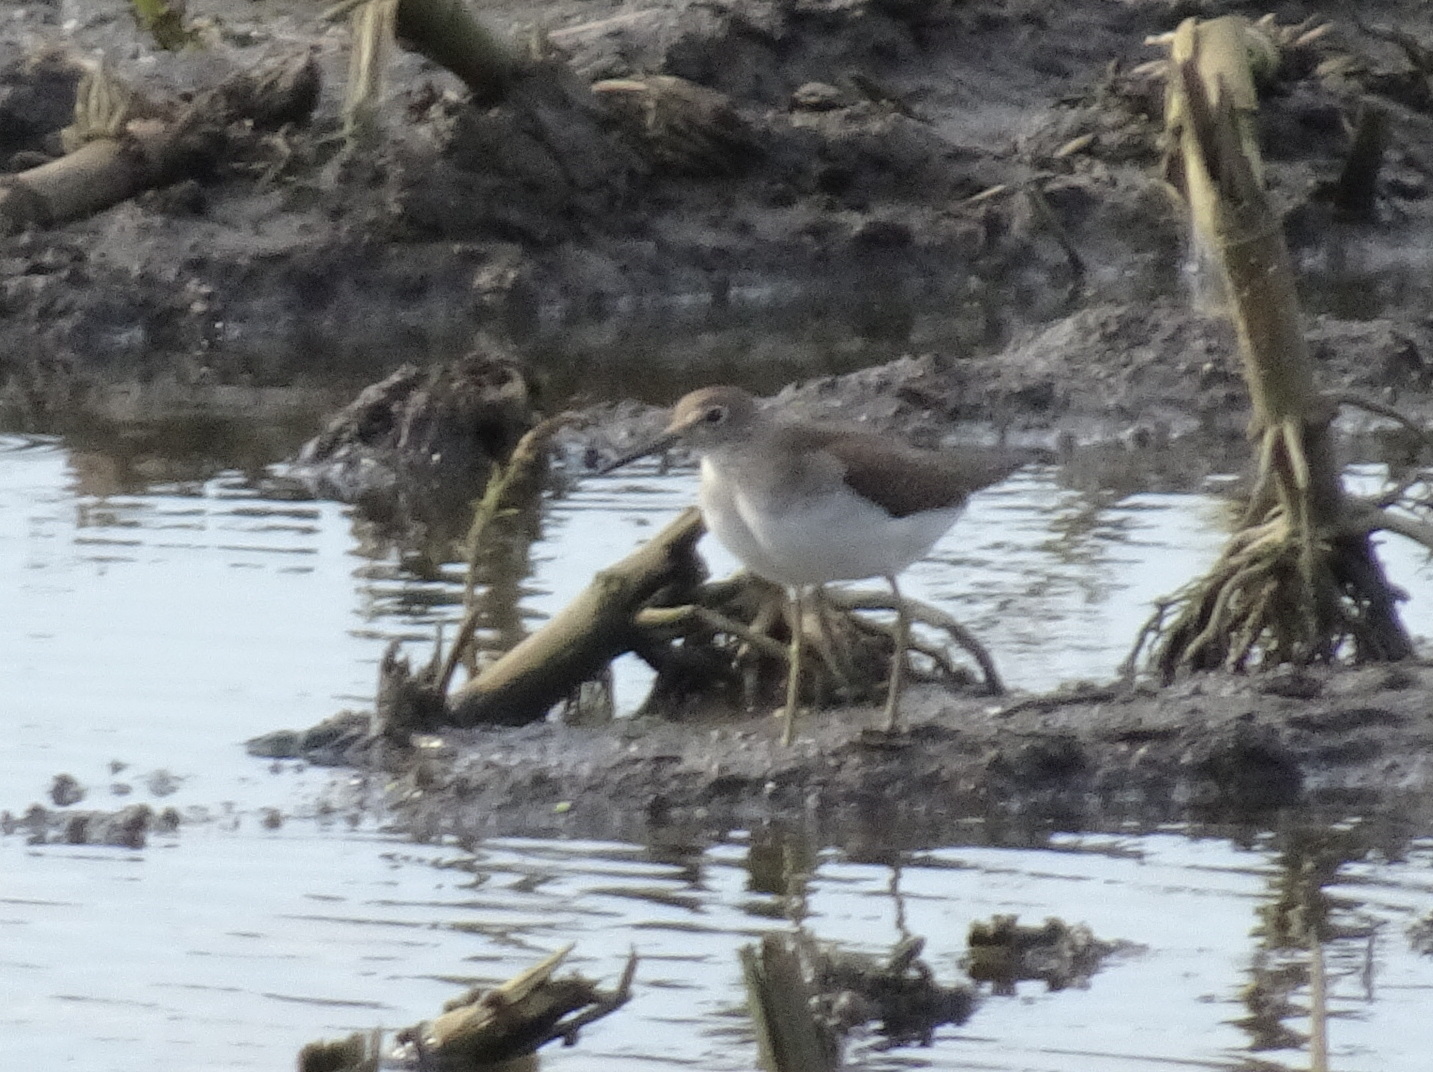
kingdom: Animalia
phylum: Chordata
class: Aves
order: Charadriiformes
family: Scolopacidae
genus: Tringa
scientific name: Tringa solitaria
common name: Solitary sandpiper
